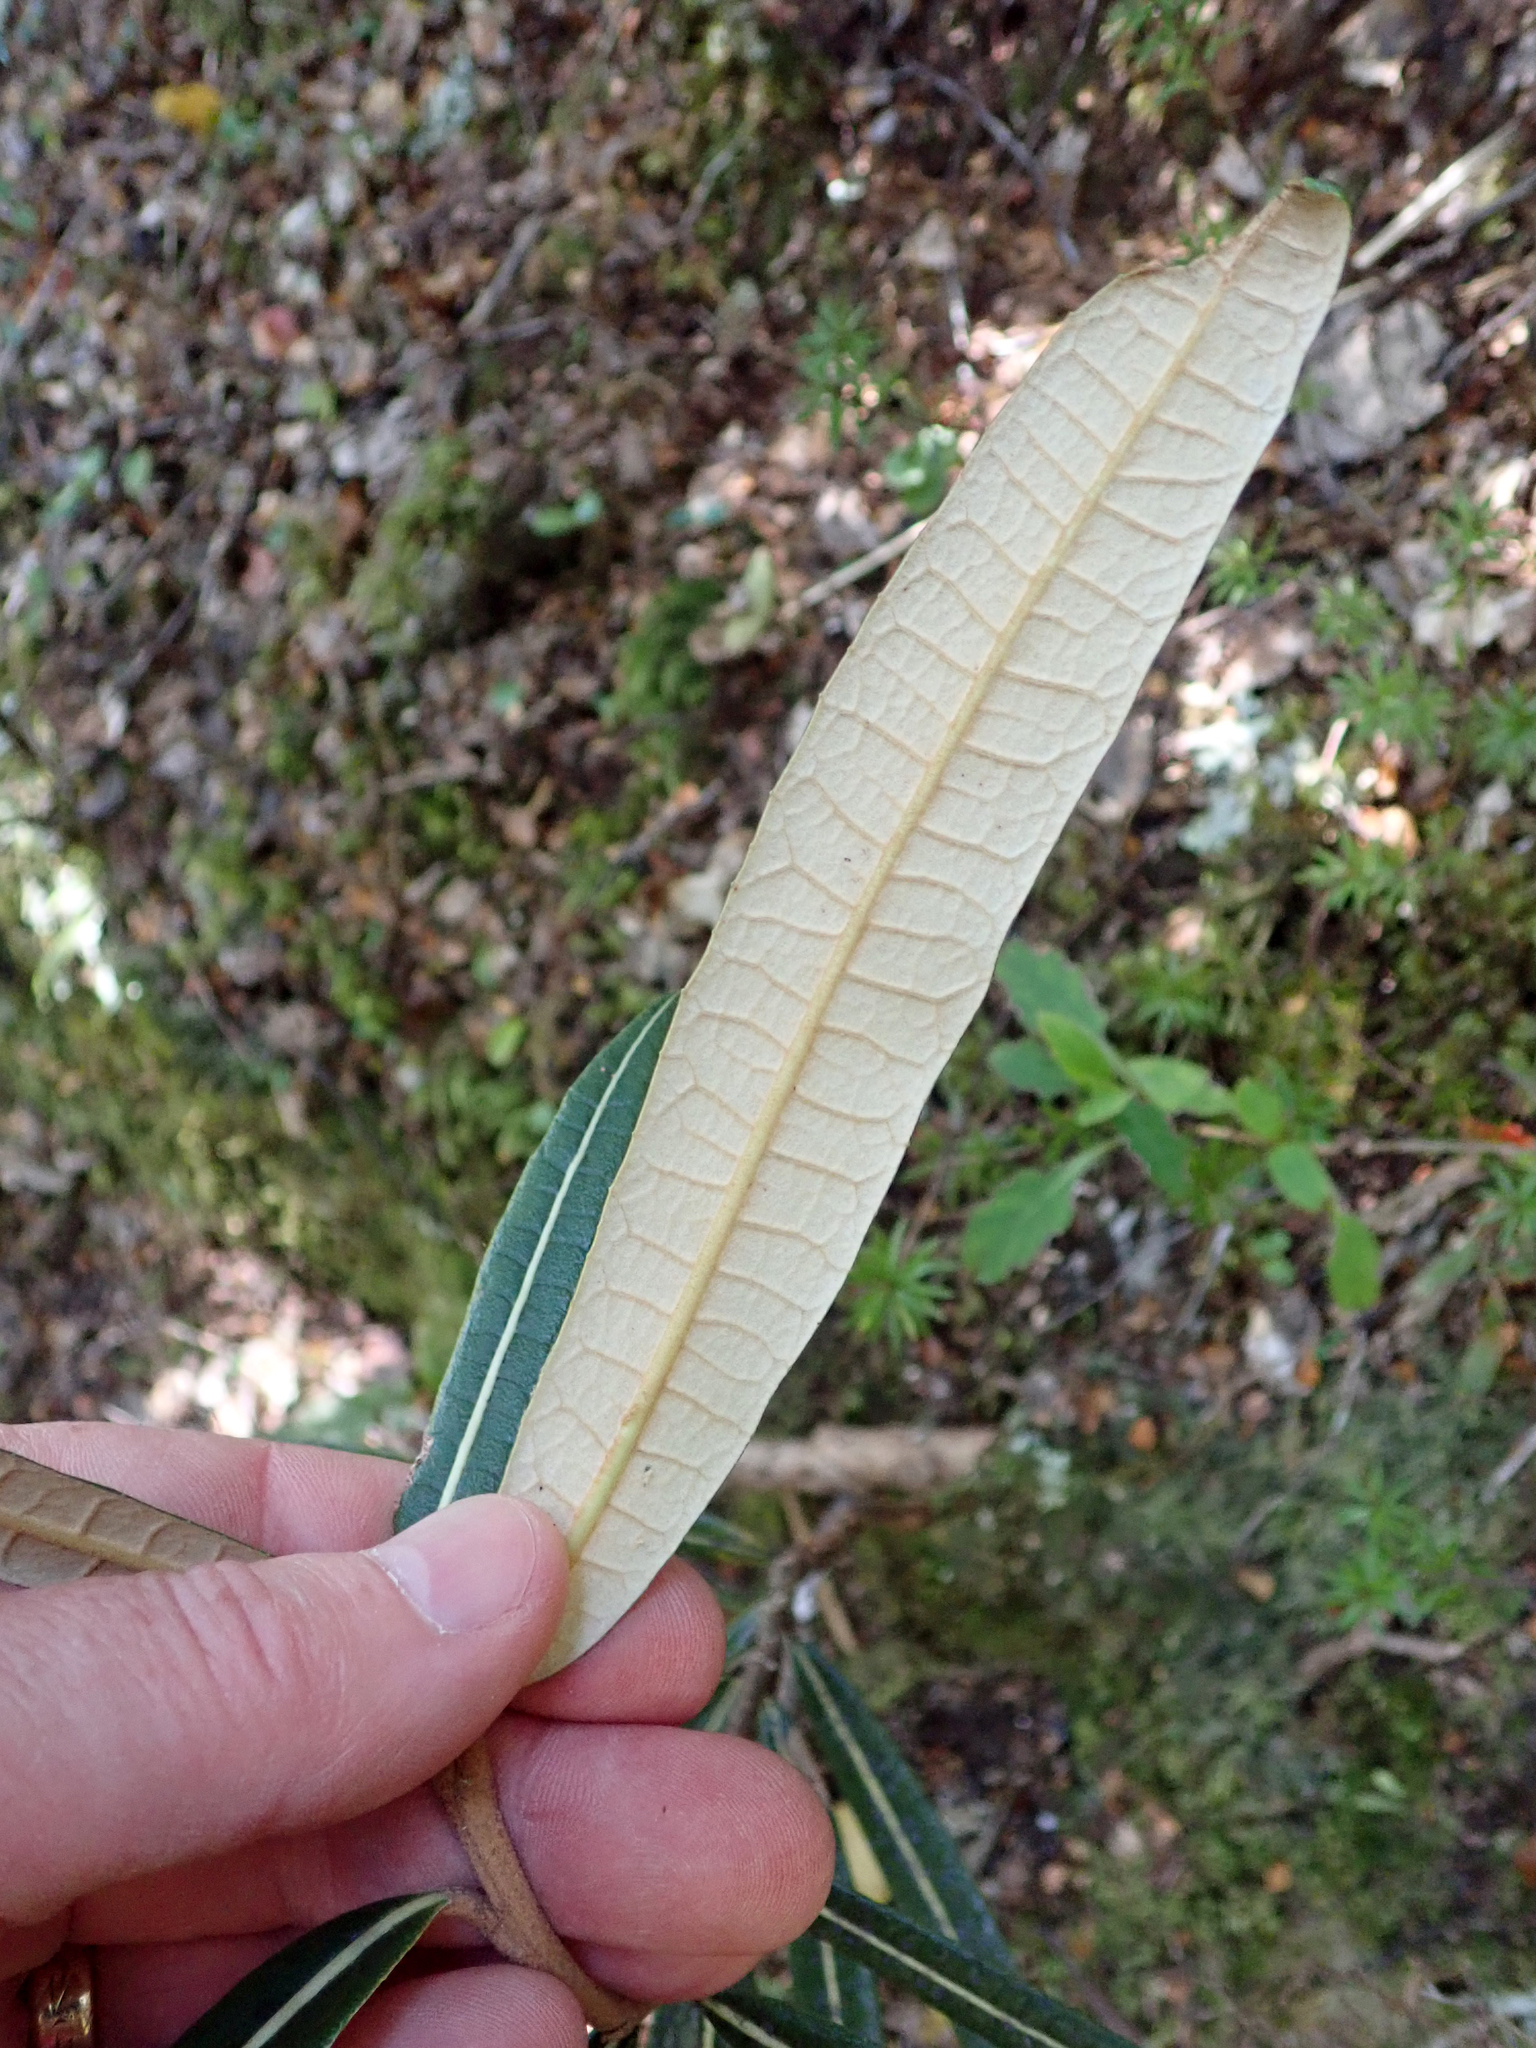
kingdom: Plantae
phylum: Tracheophyta
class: Magnoliopsida
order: Asterales
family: Asteraceae
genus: Olearia
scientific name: Olearia lacunosa
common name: Lancewood tree daisy
